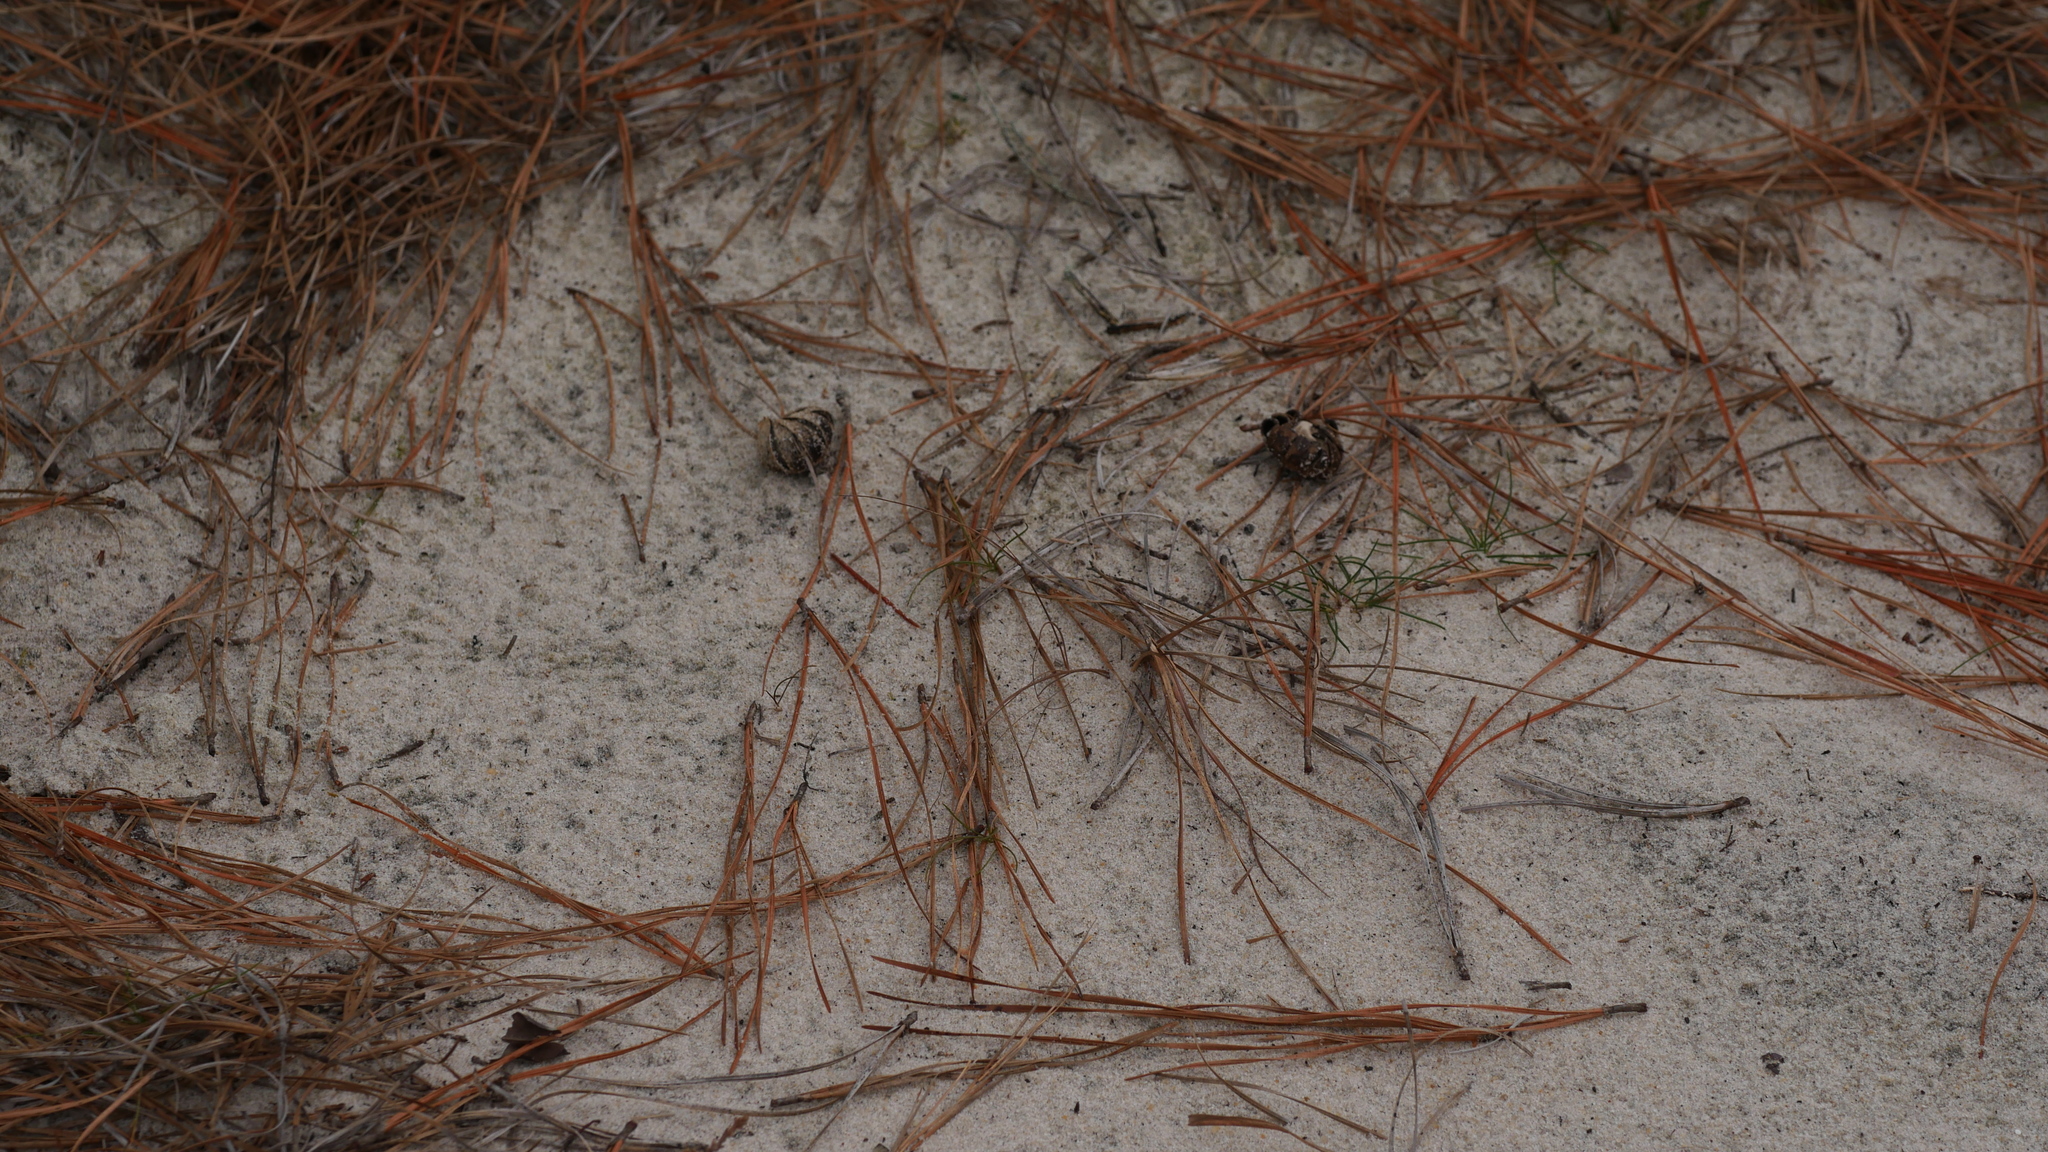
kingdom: Fungi
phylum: Basidiomycota
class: Agaricomycetes
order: Boletales
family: Diplocystidiaceae
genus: Astraeus
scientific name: Astraeus smithii
